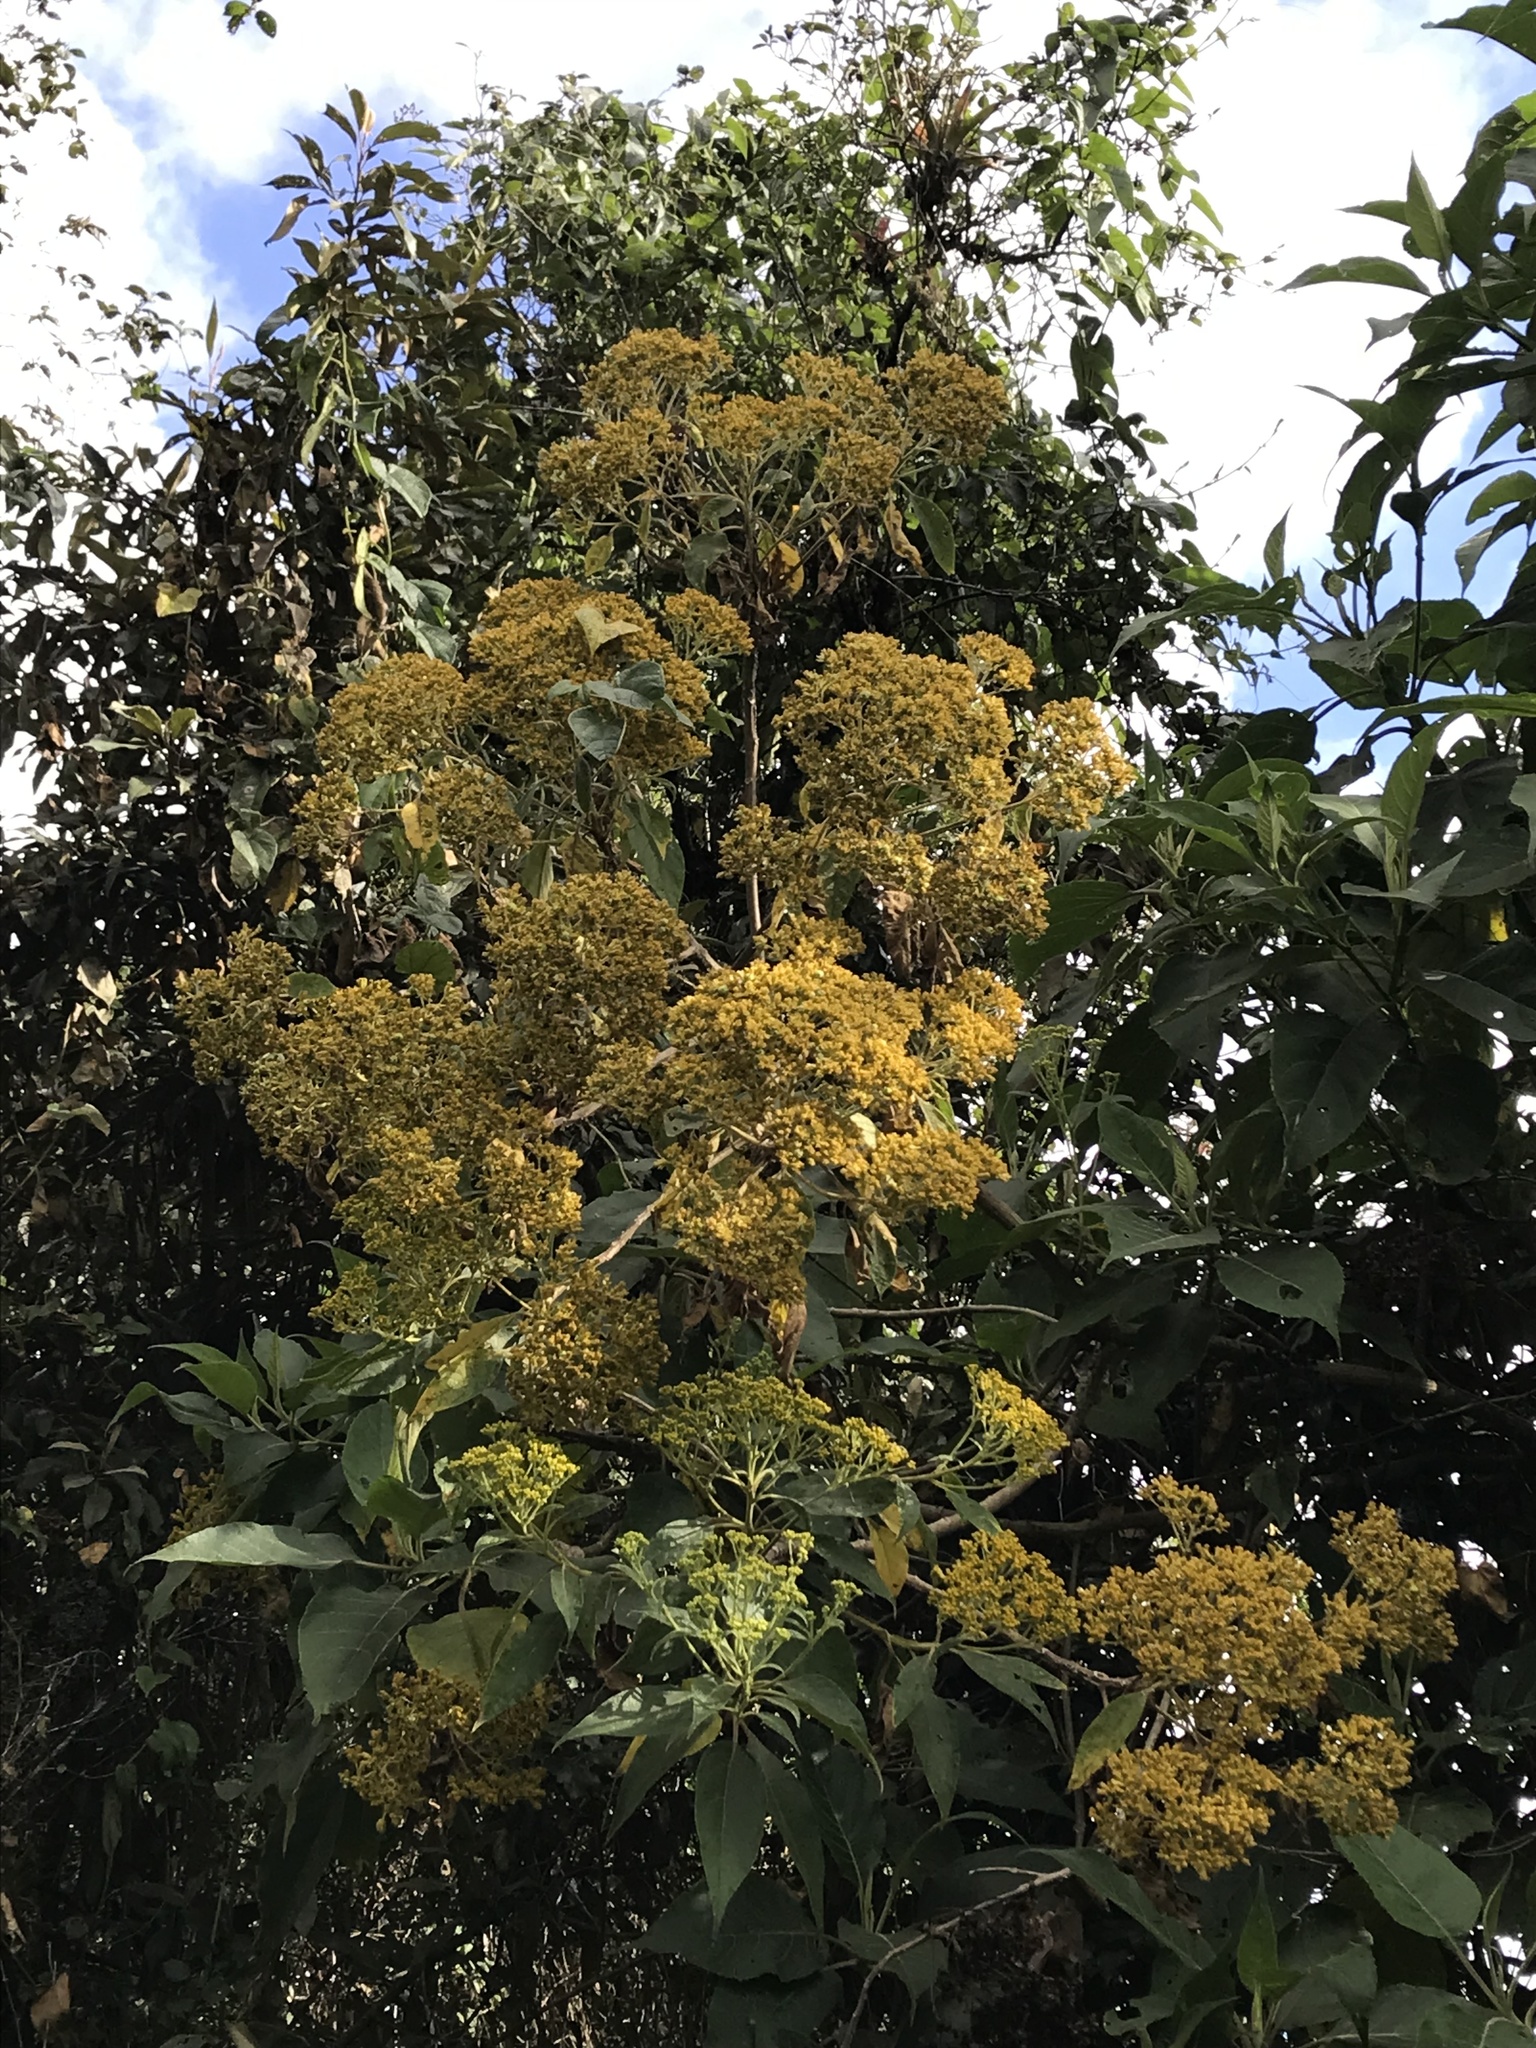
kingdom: Plantae
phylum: Tracheophyta
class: Magnoliopsida
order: Asterales
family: Asteraceae
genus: Verbesina
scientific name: Verbesina crassiramea
